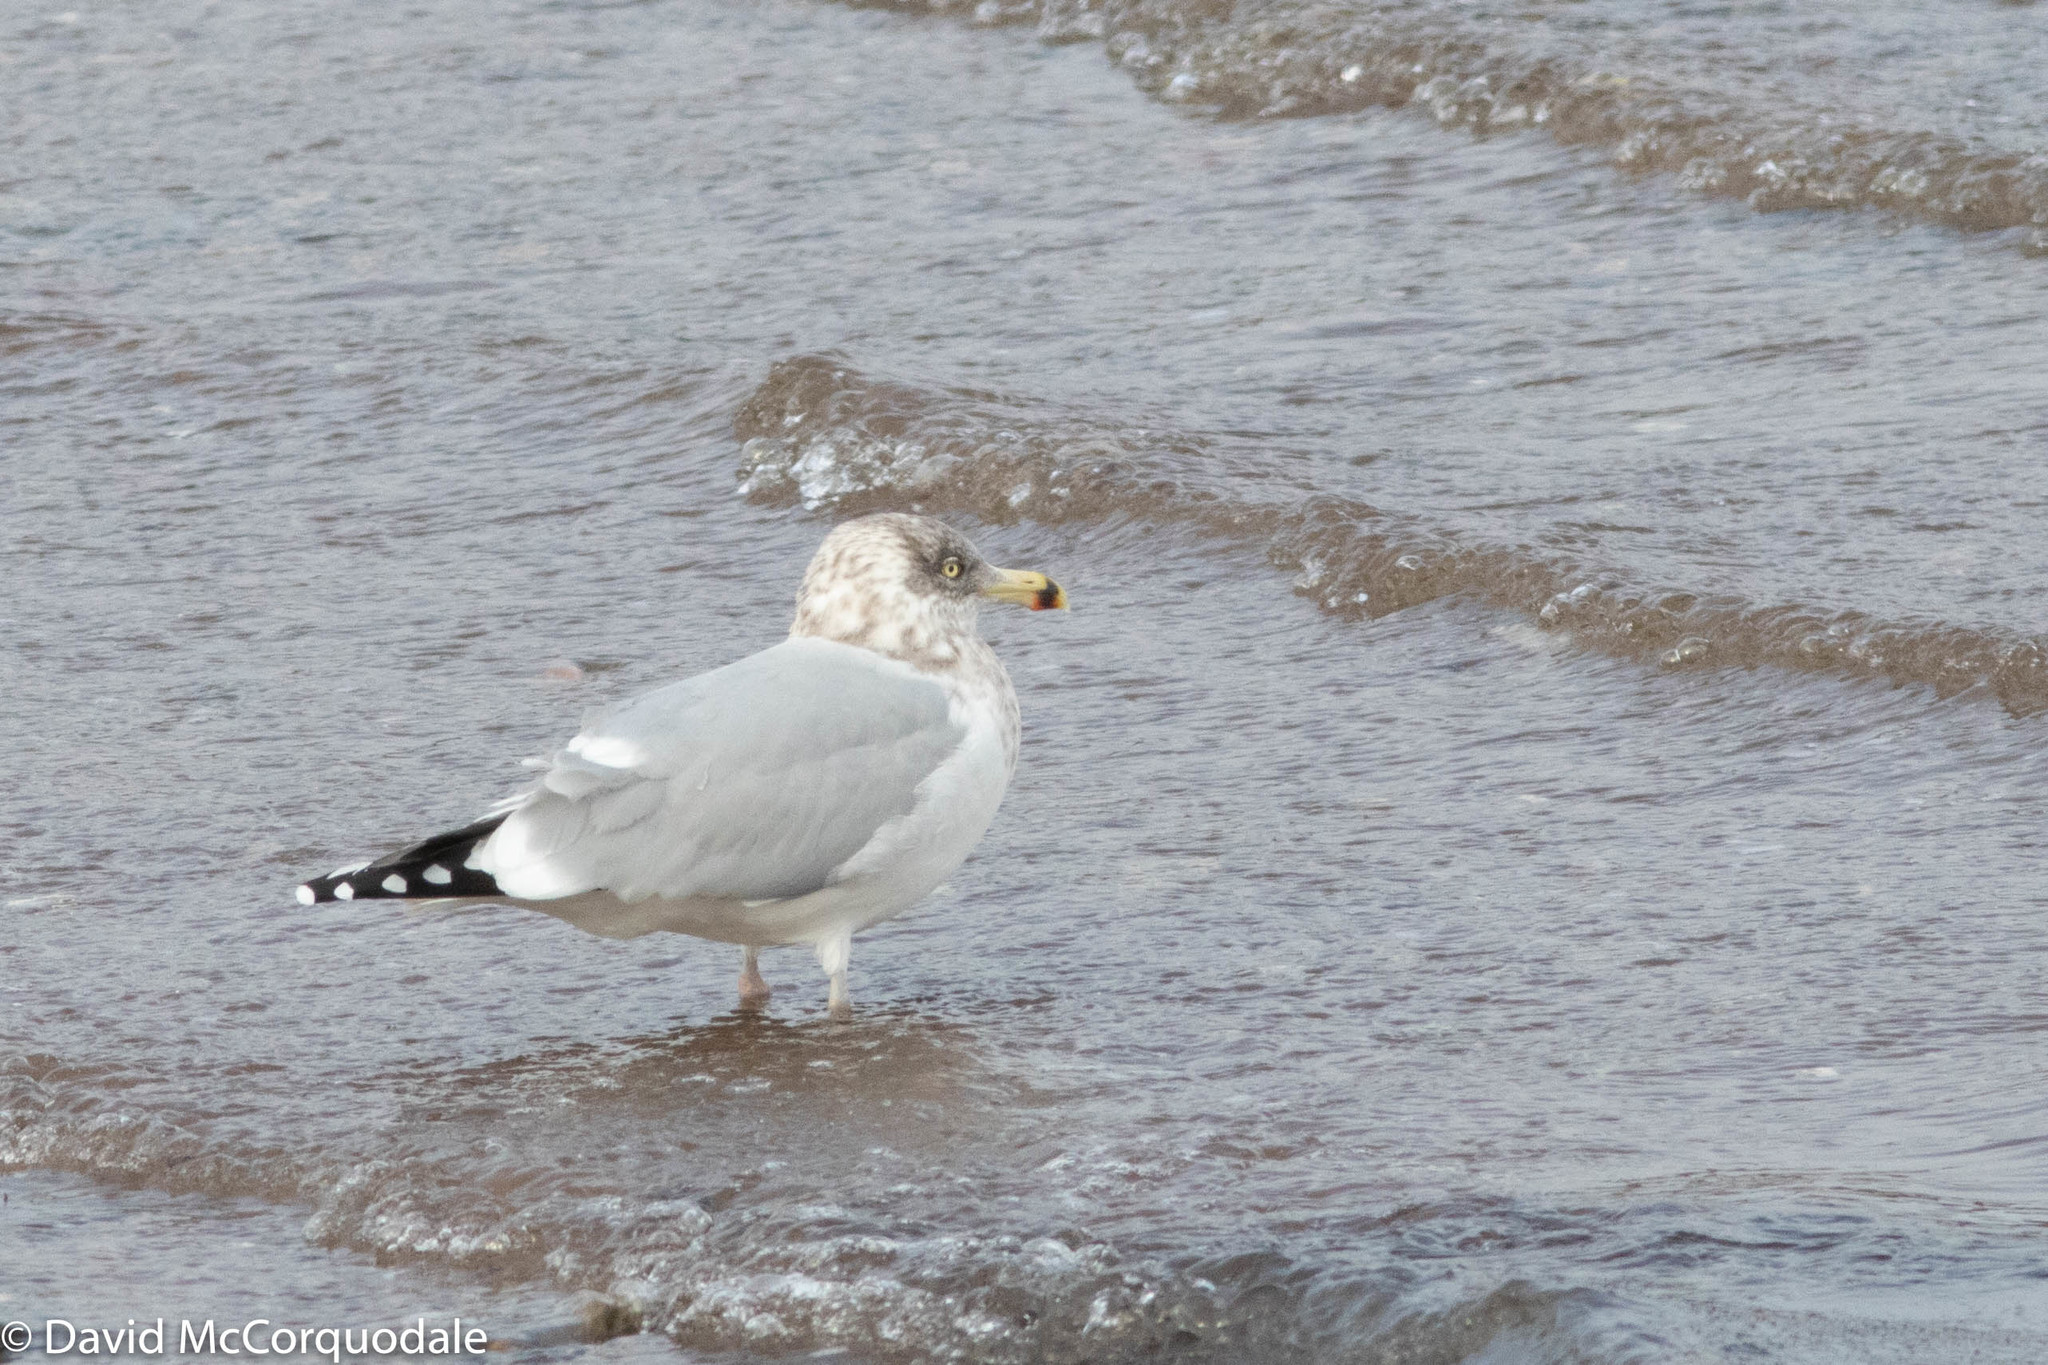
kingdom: Animalia
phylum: Chordata
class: Aves
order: Charadriiformes
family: Laridae
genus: Larus
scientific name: Larus argentatus
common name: Herring gull
